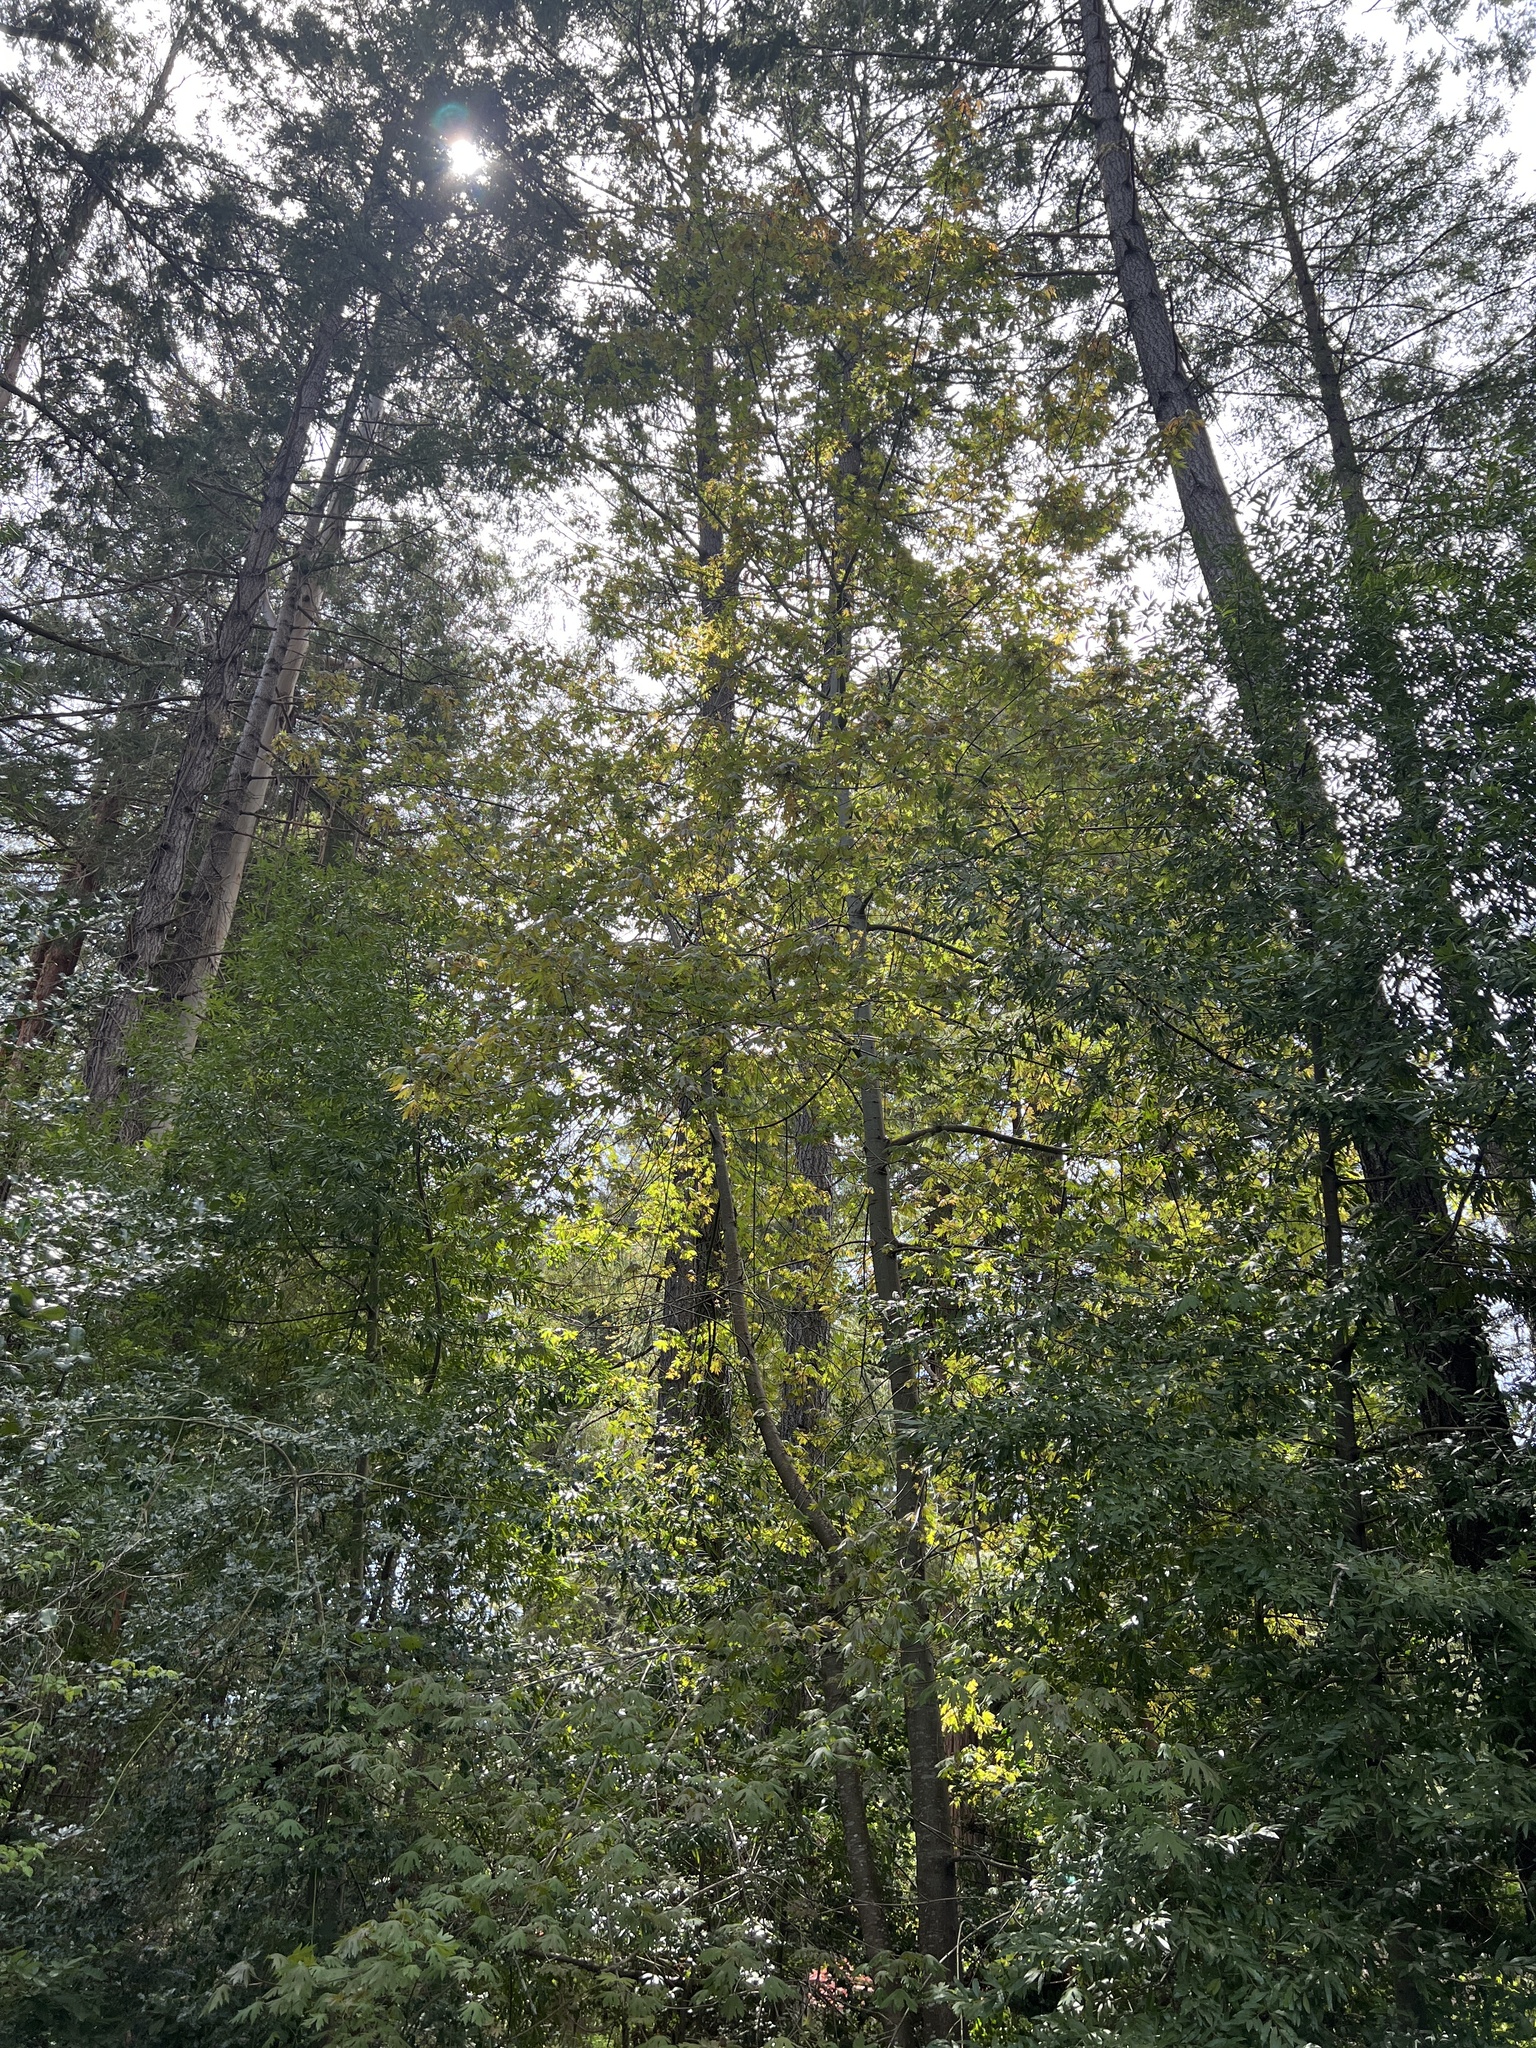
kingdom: Plantae
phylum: Tracheophyta
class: Magnoliopsida
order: Sapindales
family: Sapindaceae
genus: Acer
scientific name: Acer macrophyllum
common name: Oregon maple
